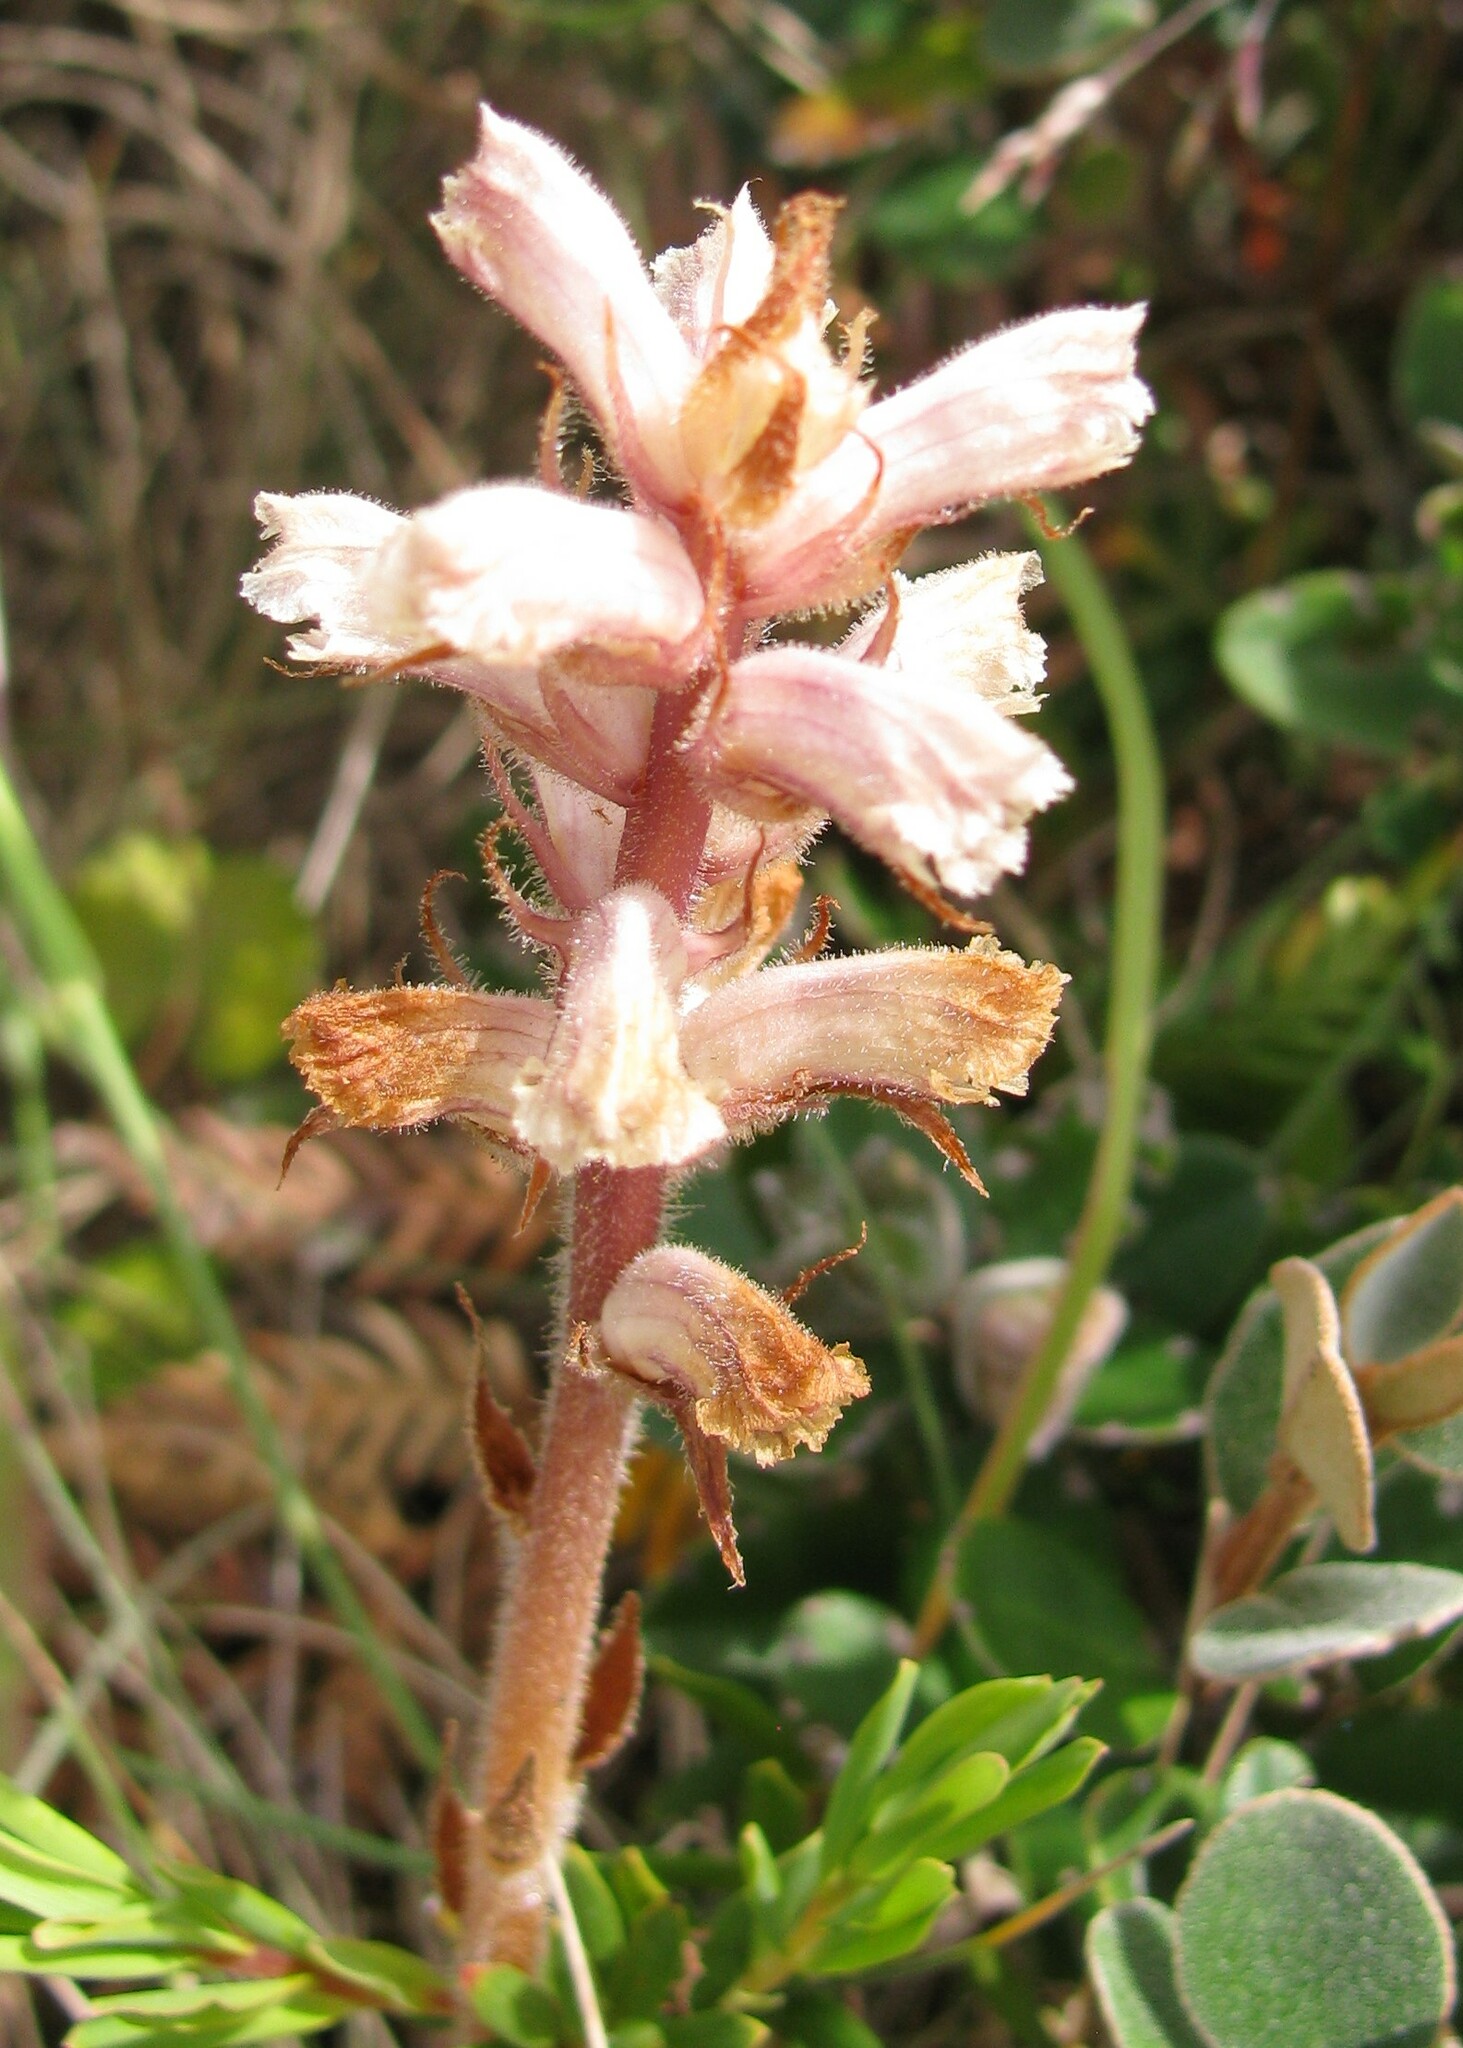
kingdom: Plantae
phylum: Tracheophyta
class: Magnoliopsida
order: Lamiales
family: Orobanchaceae
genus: Orobanche
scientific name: Orobanche minor
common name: Common broomrape
